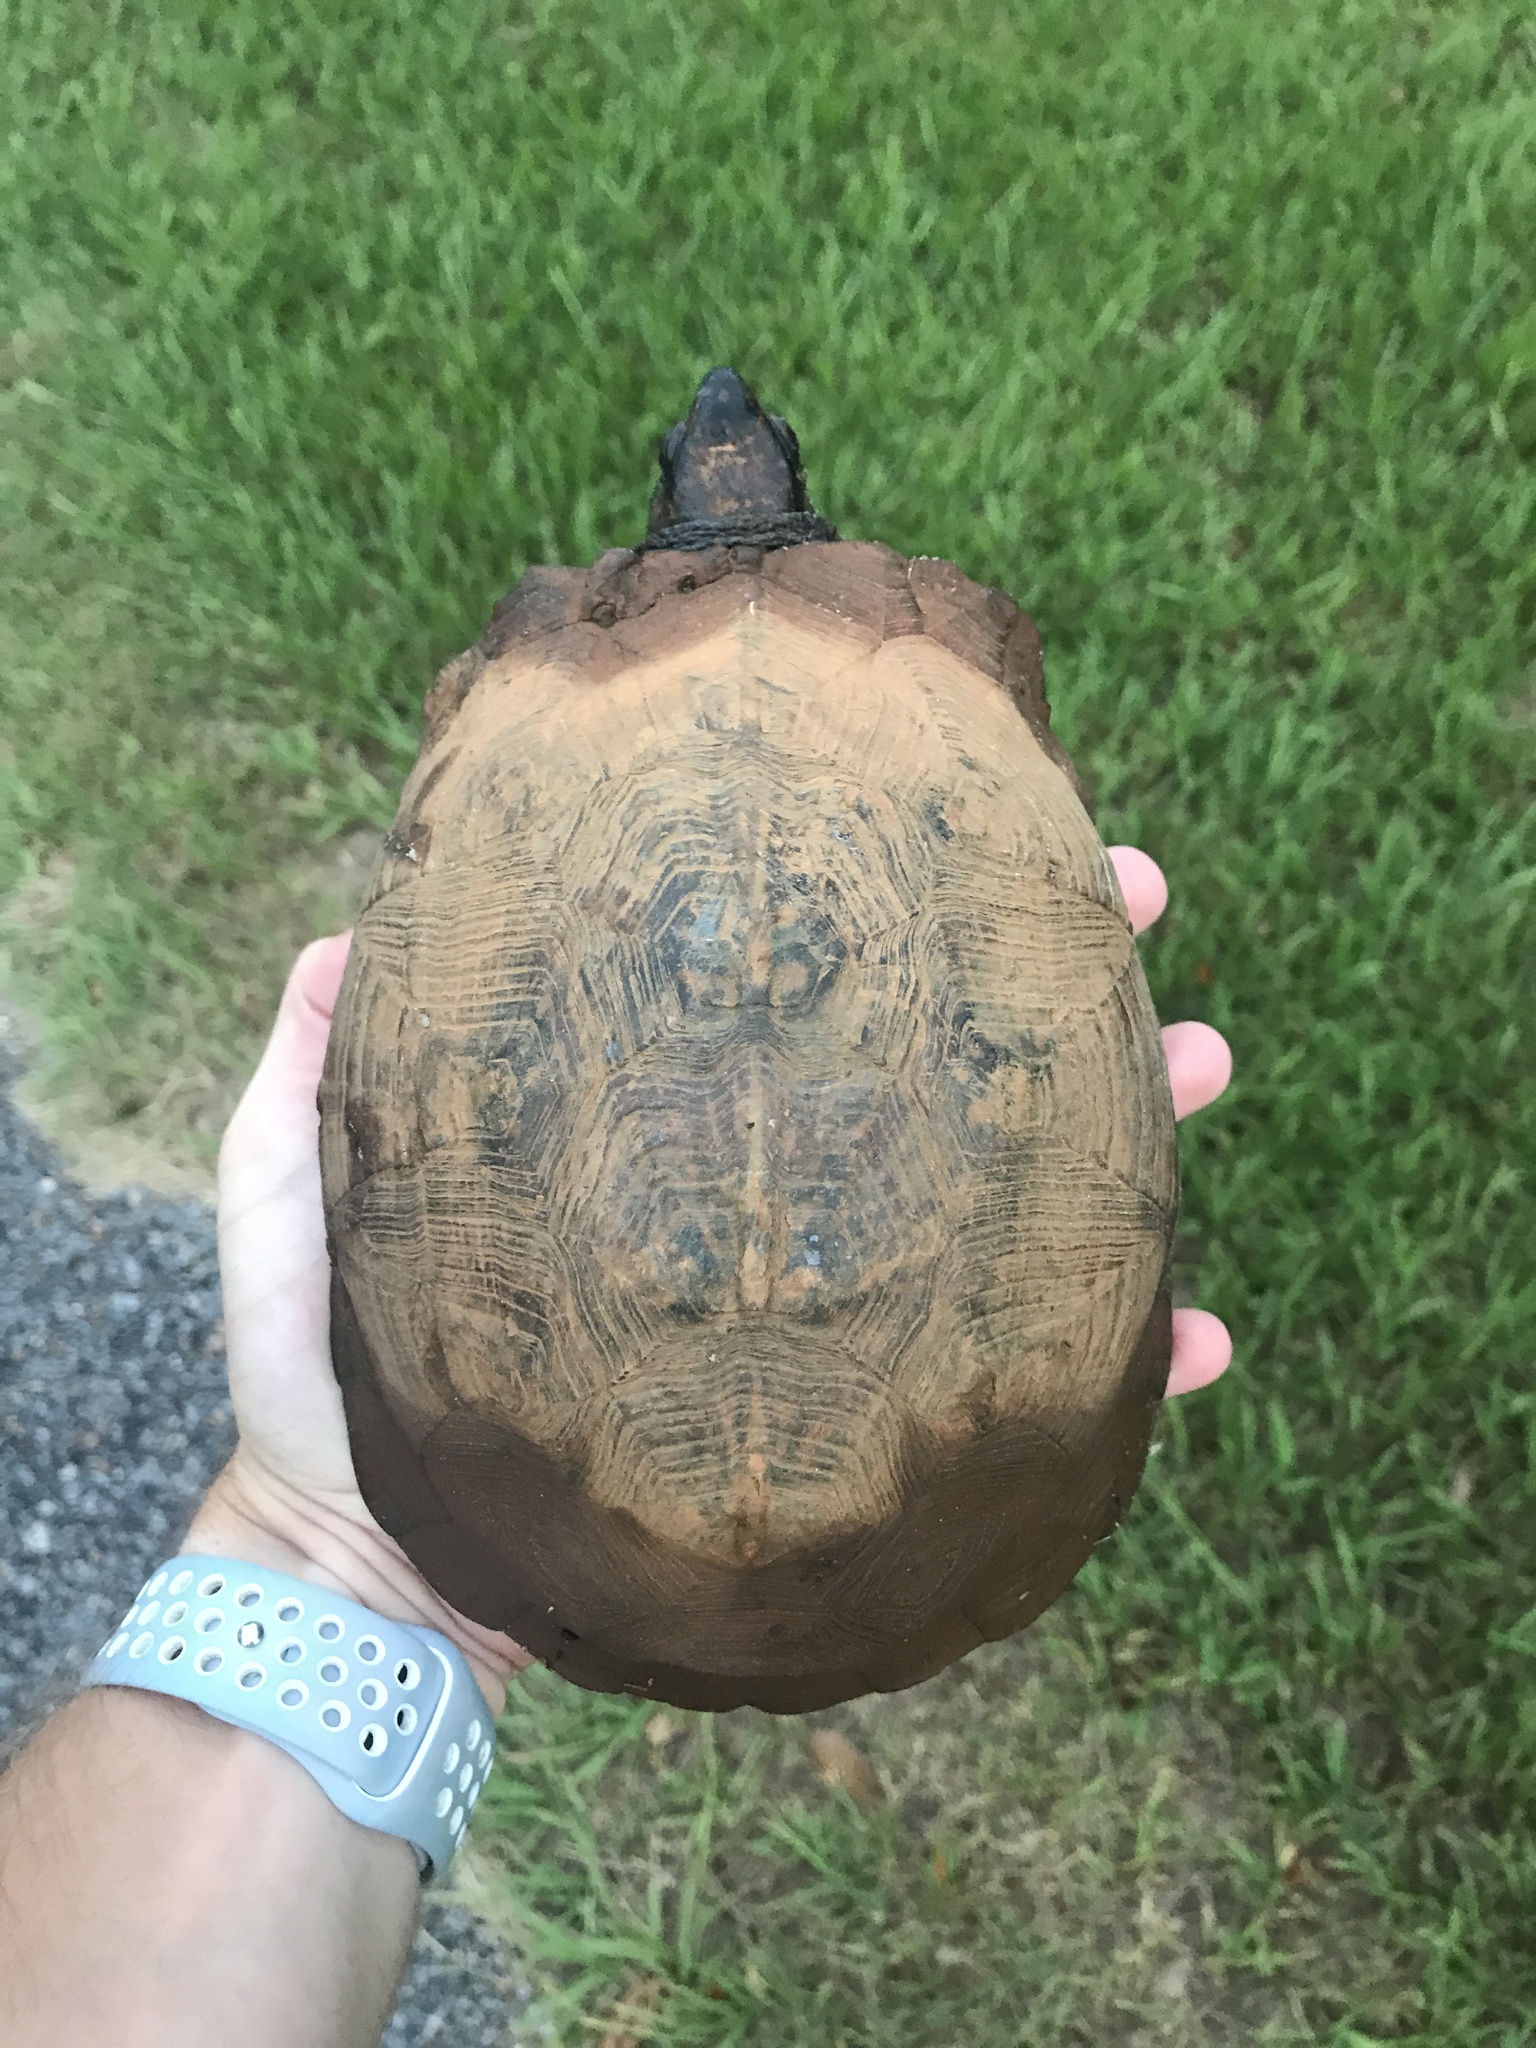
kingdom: Animalia
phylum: Chordata
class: Testudines
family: Emydidae
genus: Terrapene
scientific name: Terrapene carolina
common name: Common box turtle
